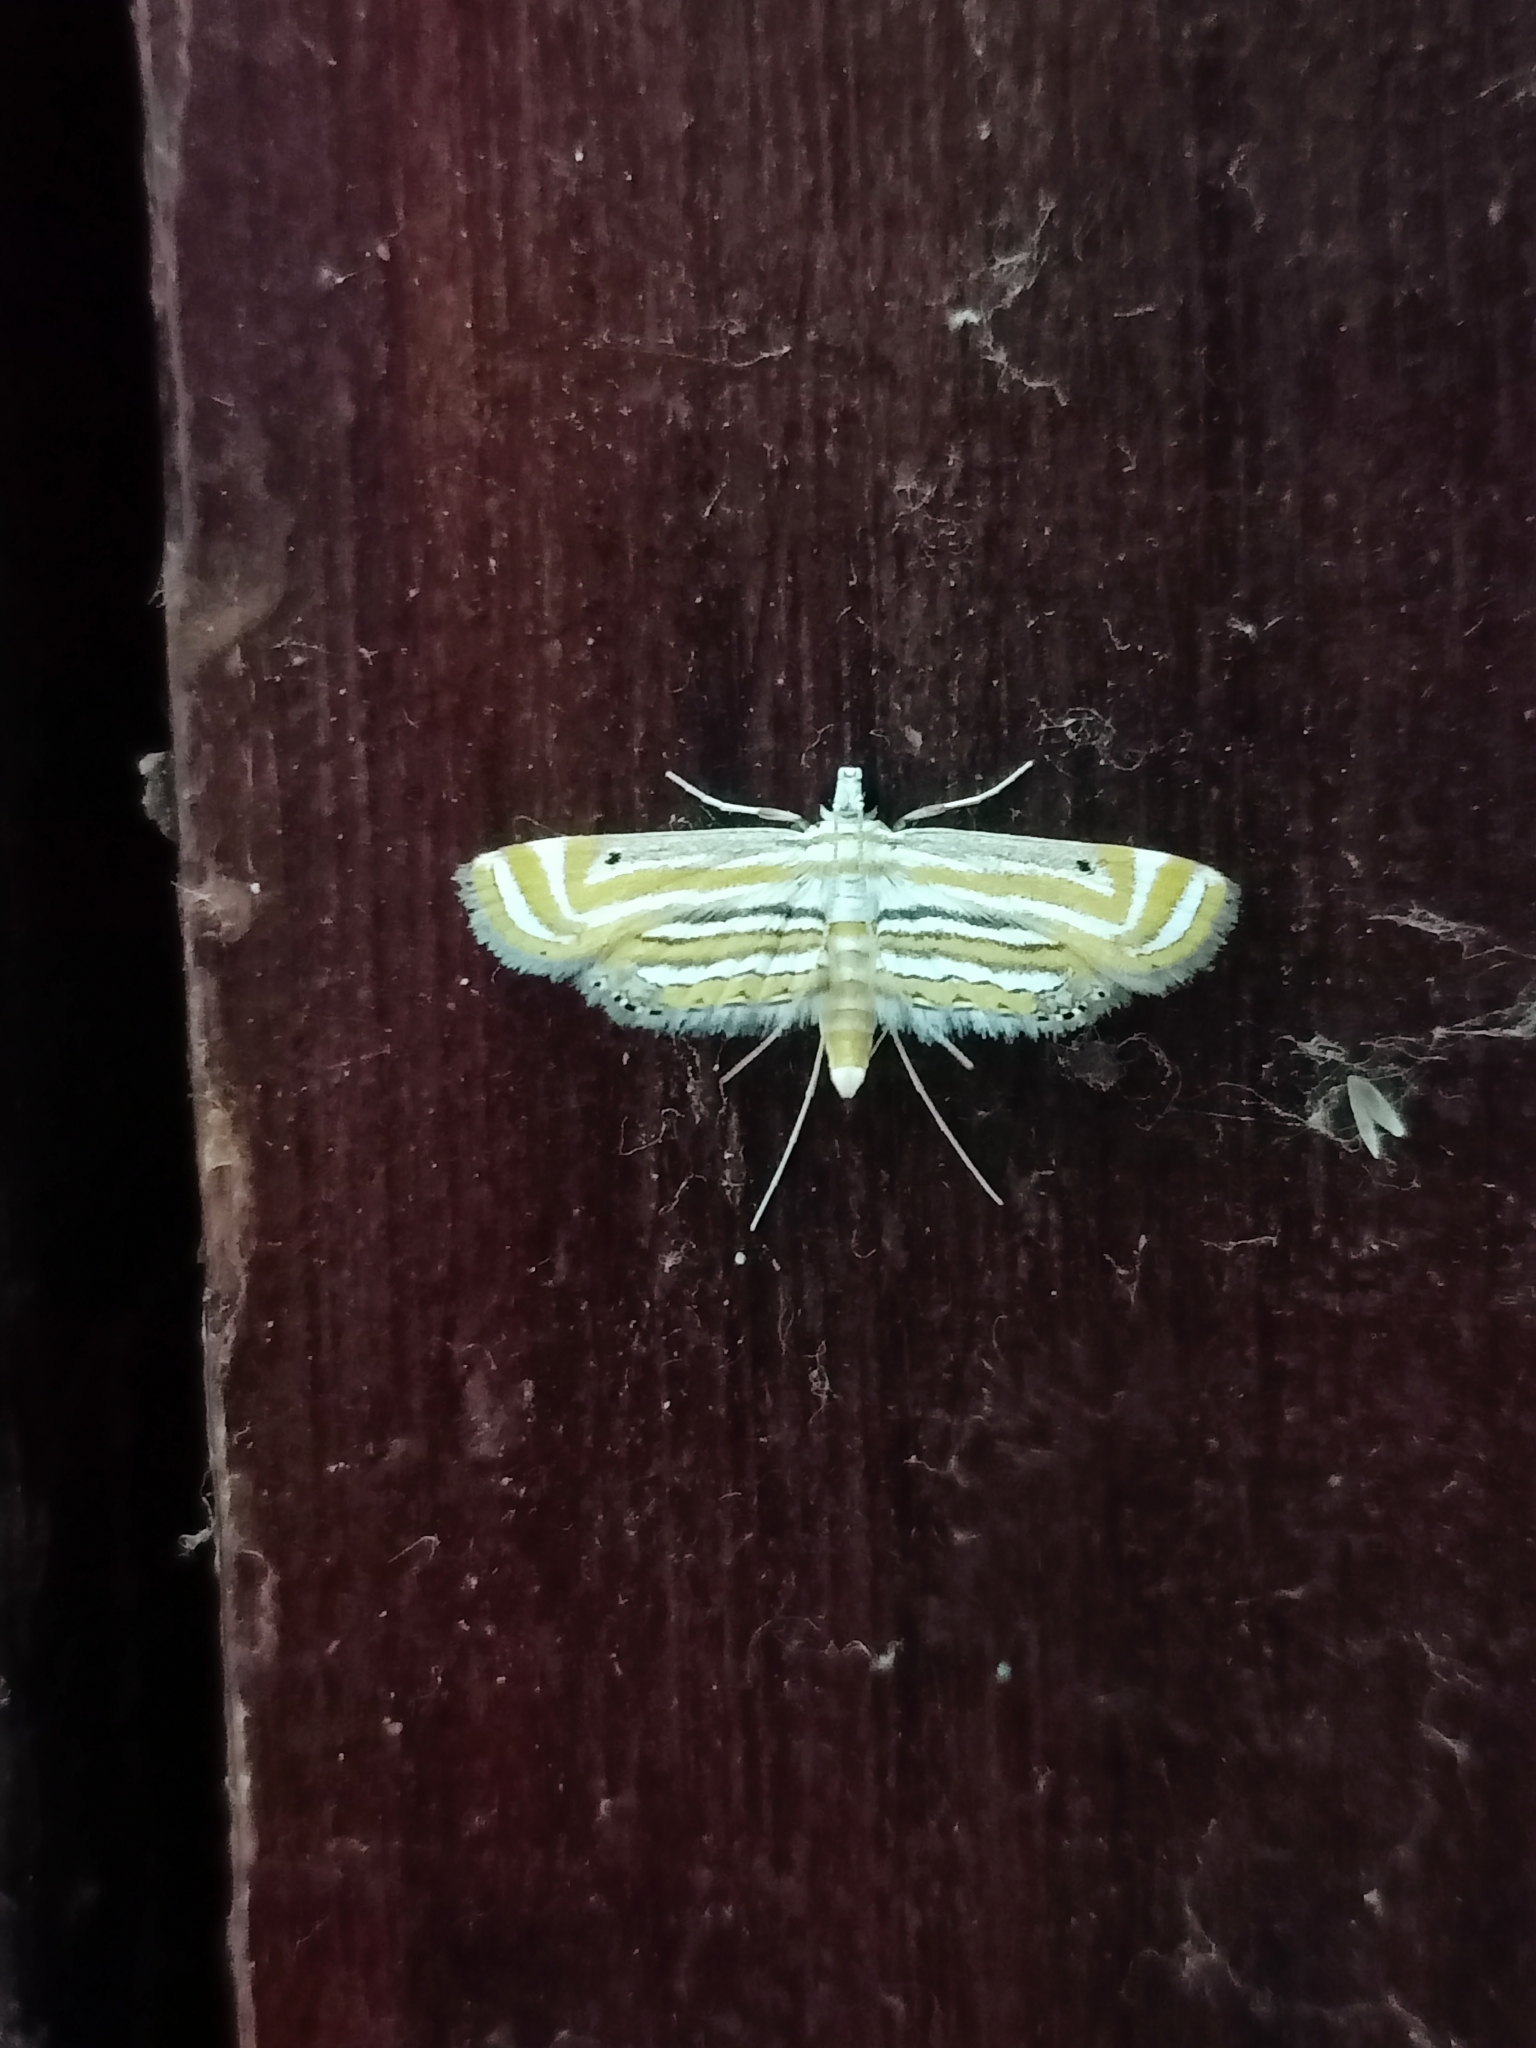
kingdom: Animalia
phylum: Arthropoda
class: Insecta
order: Lepidoptera
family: Crambidae
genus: Parapoynx
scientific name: Parapoynx villidalis
